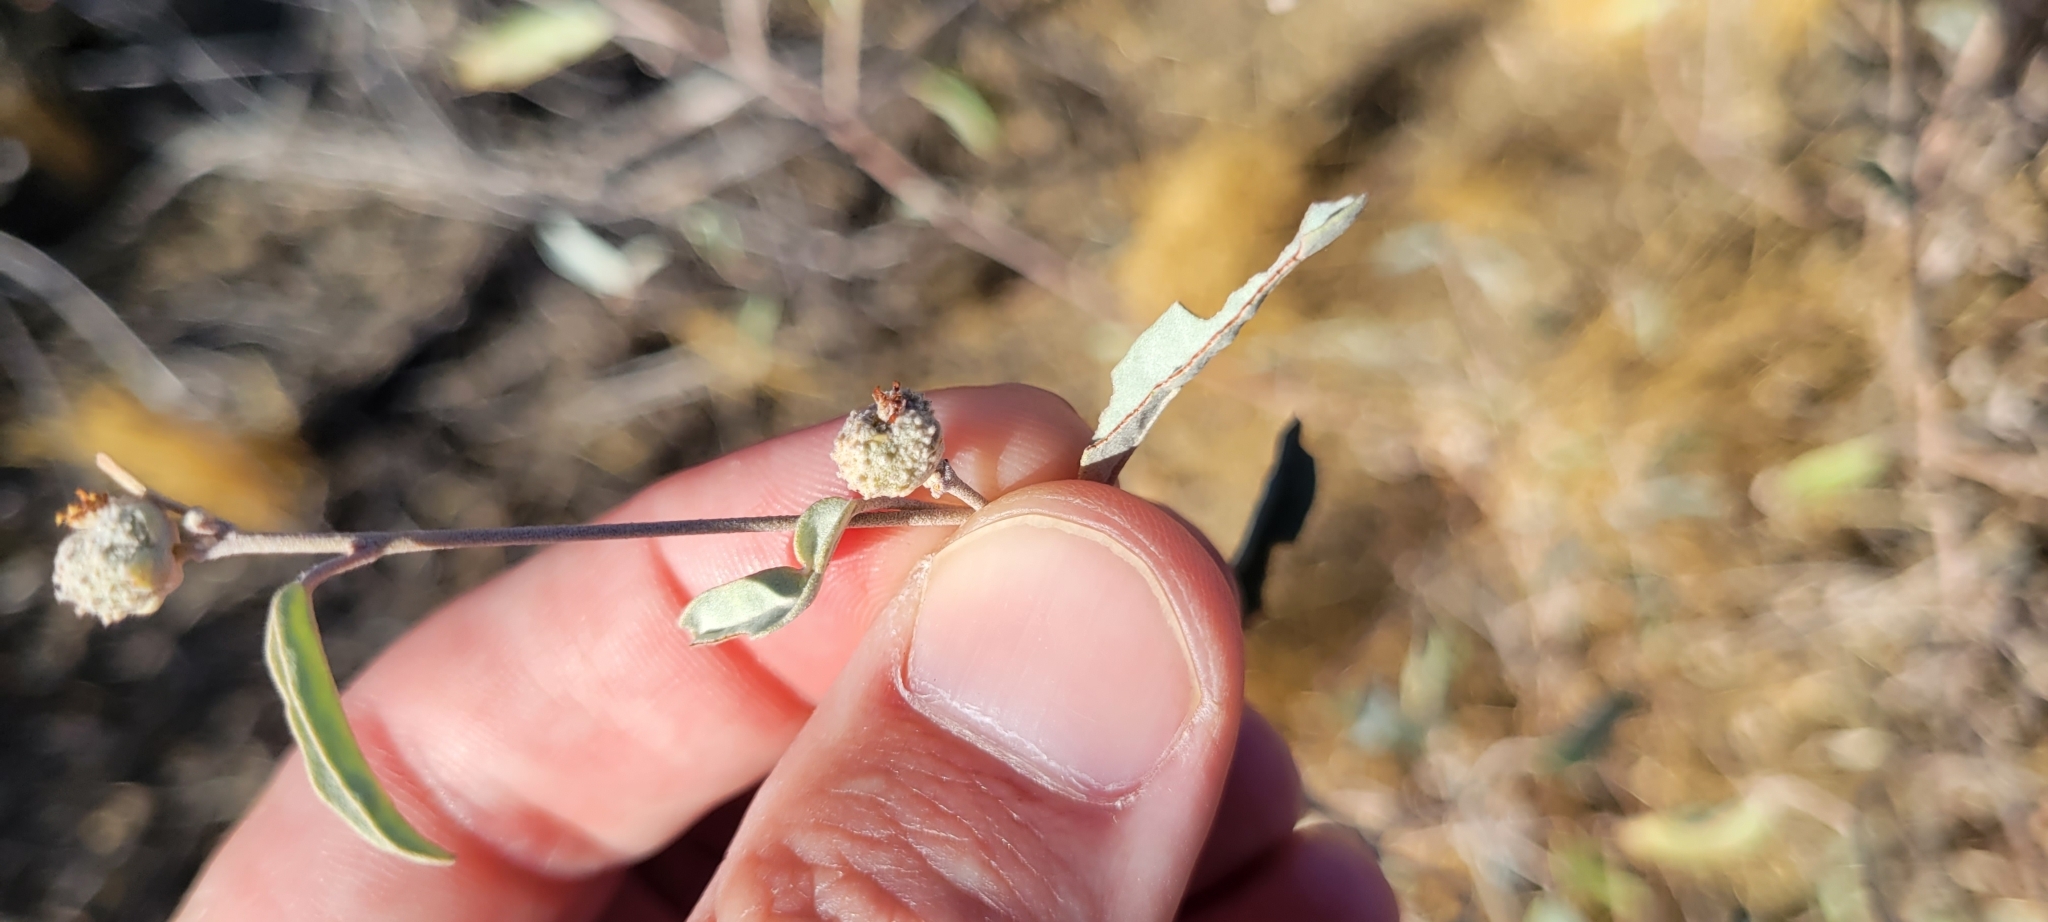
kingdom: Plantae
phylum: Tracheophyta
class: Magnoliopsida
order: Malpighiales
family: Euphorbiaceae
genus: Croton
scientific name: Croton californicus
